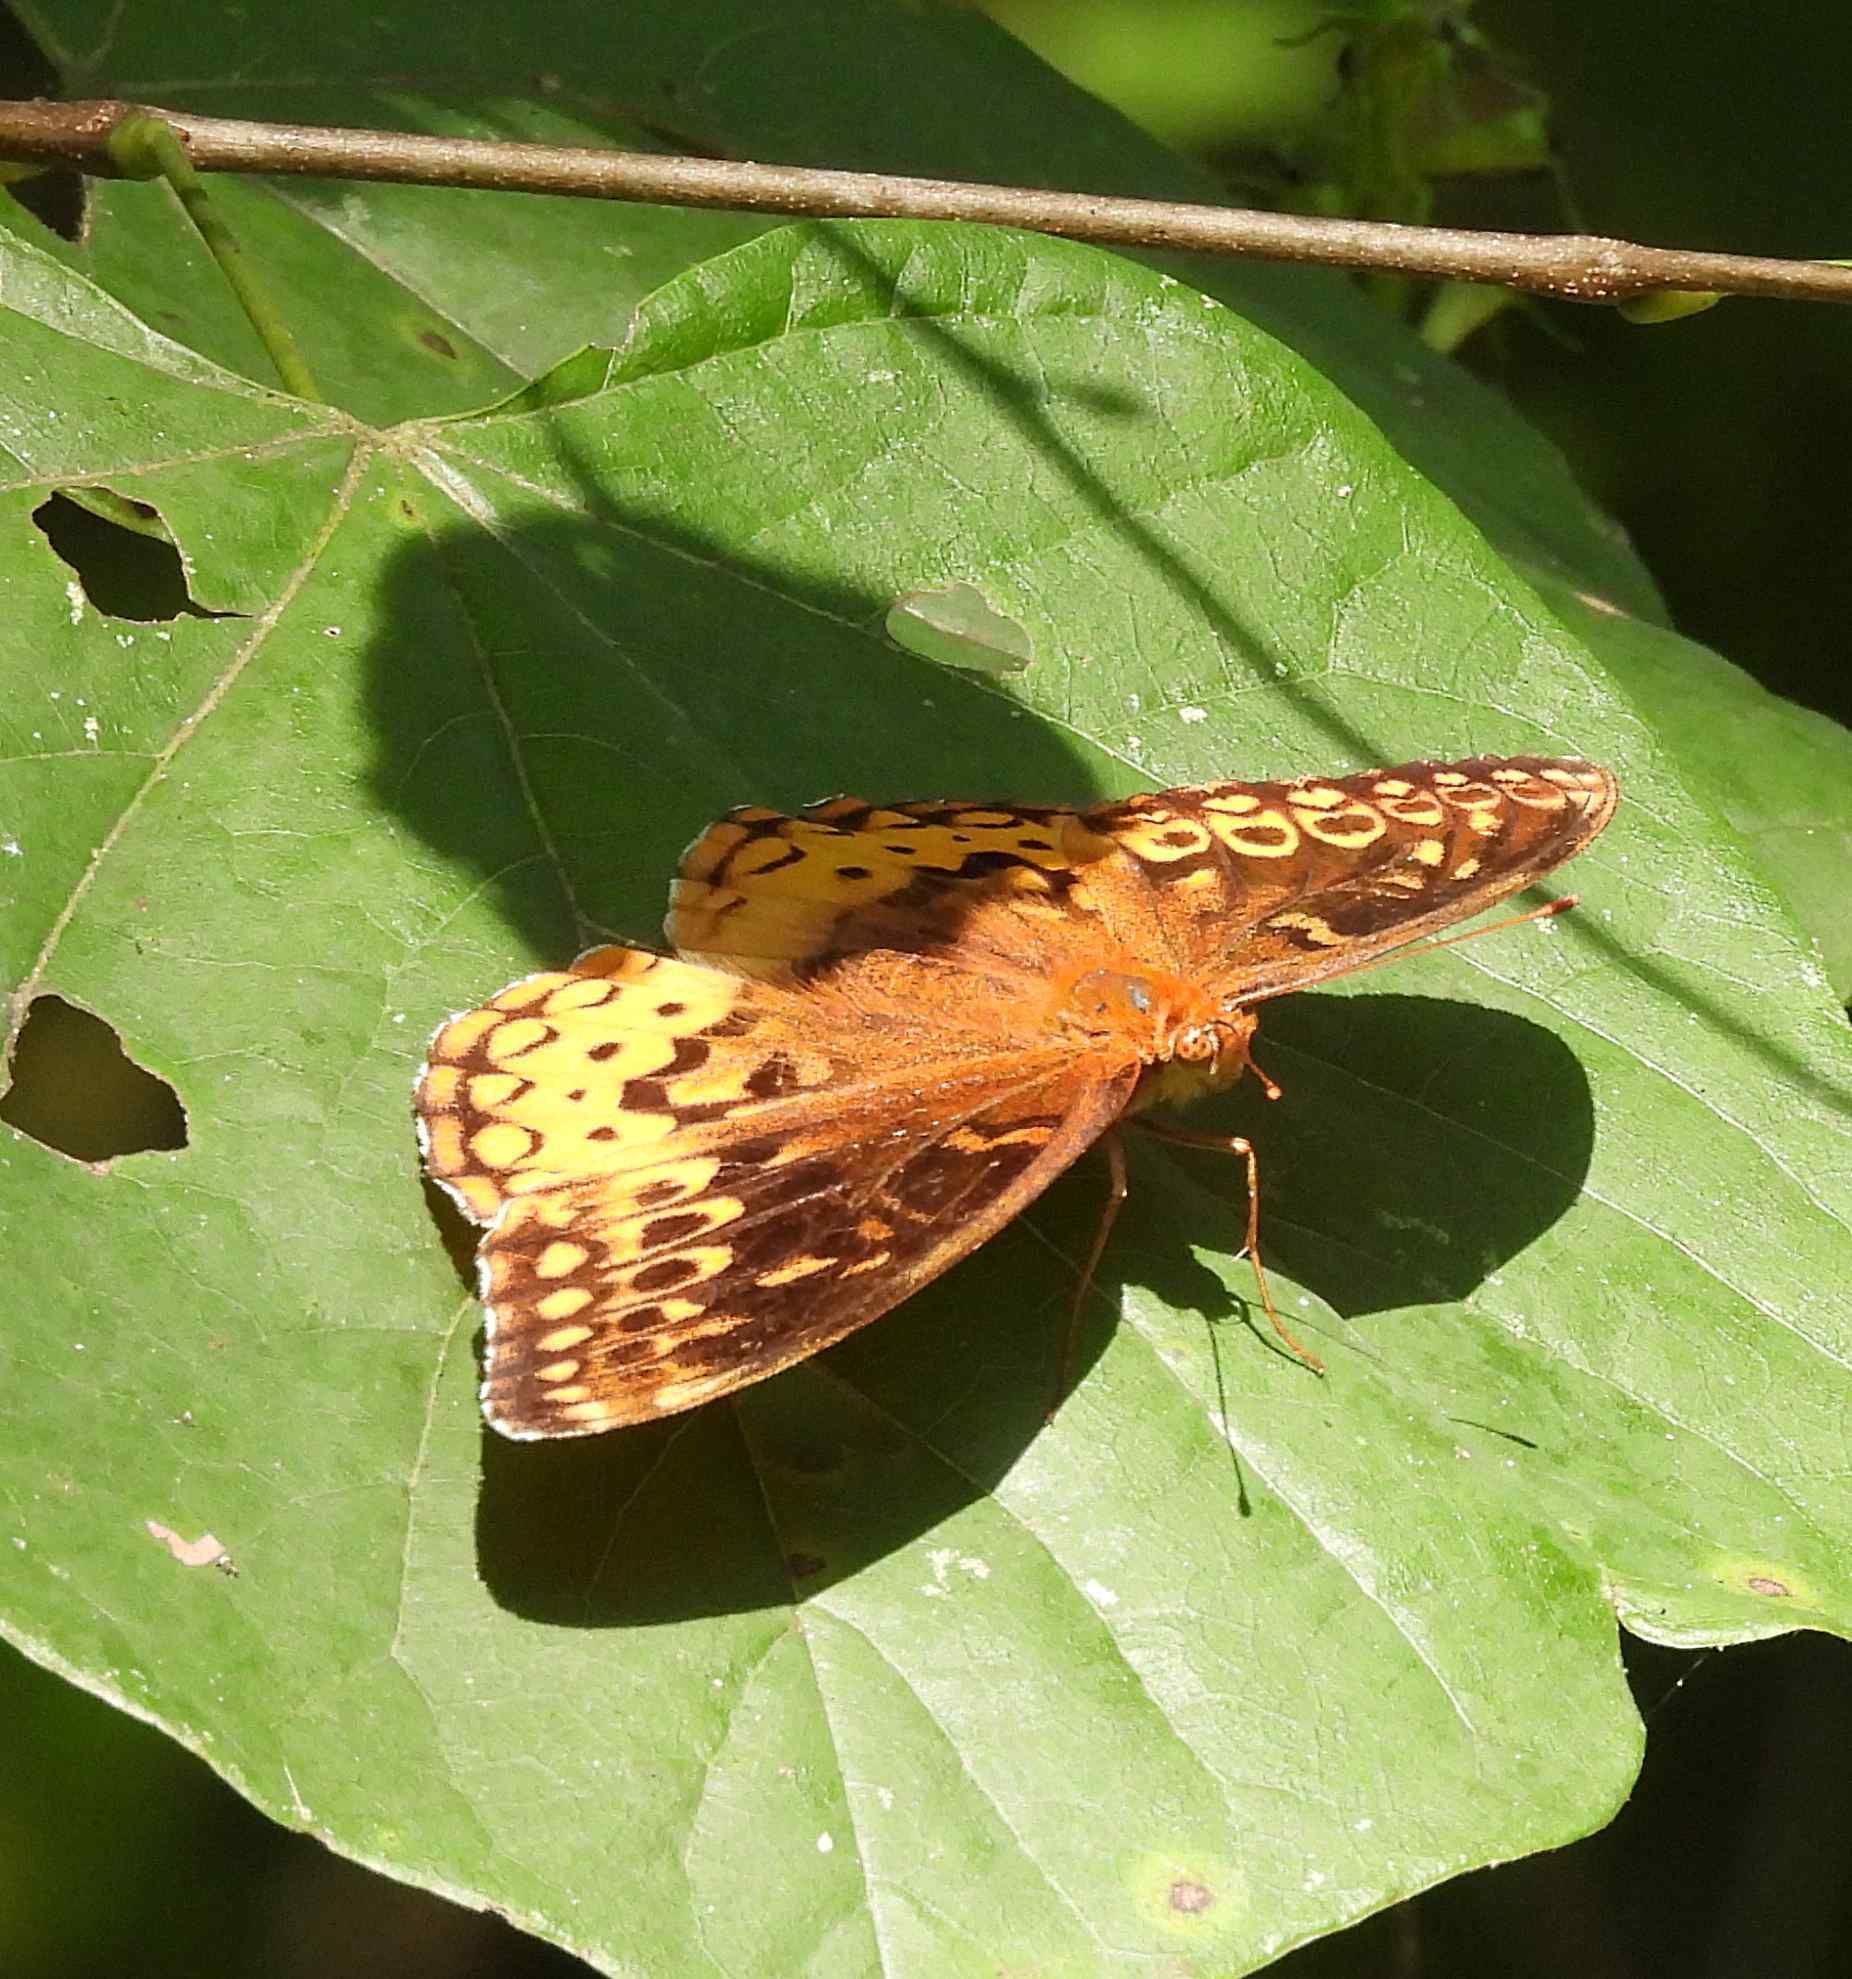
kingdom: Animalia
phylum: Arthropoda
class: Insecta
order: Lepidoptera
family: Nymphalidae
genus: Speyeria
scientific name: Speyeria cybele
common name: Great spangled fritillary
